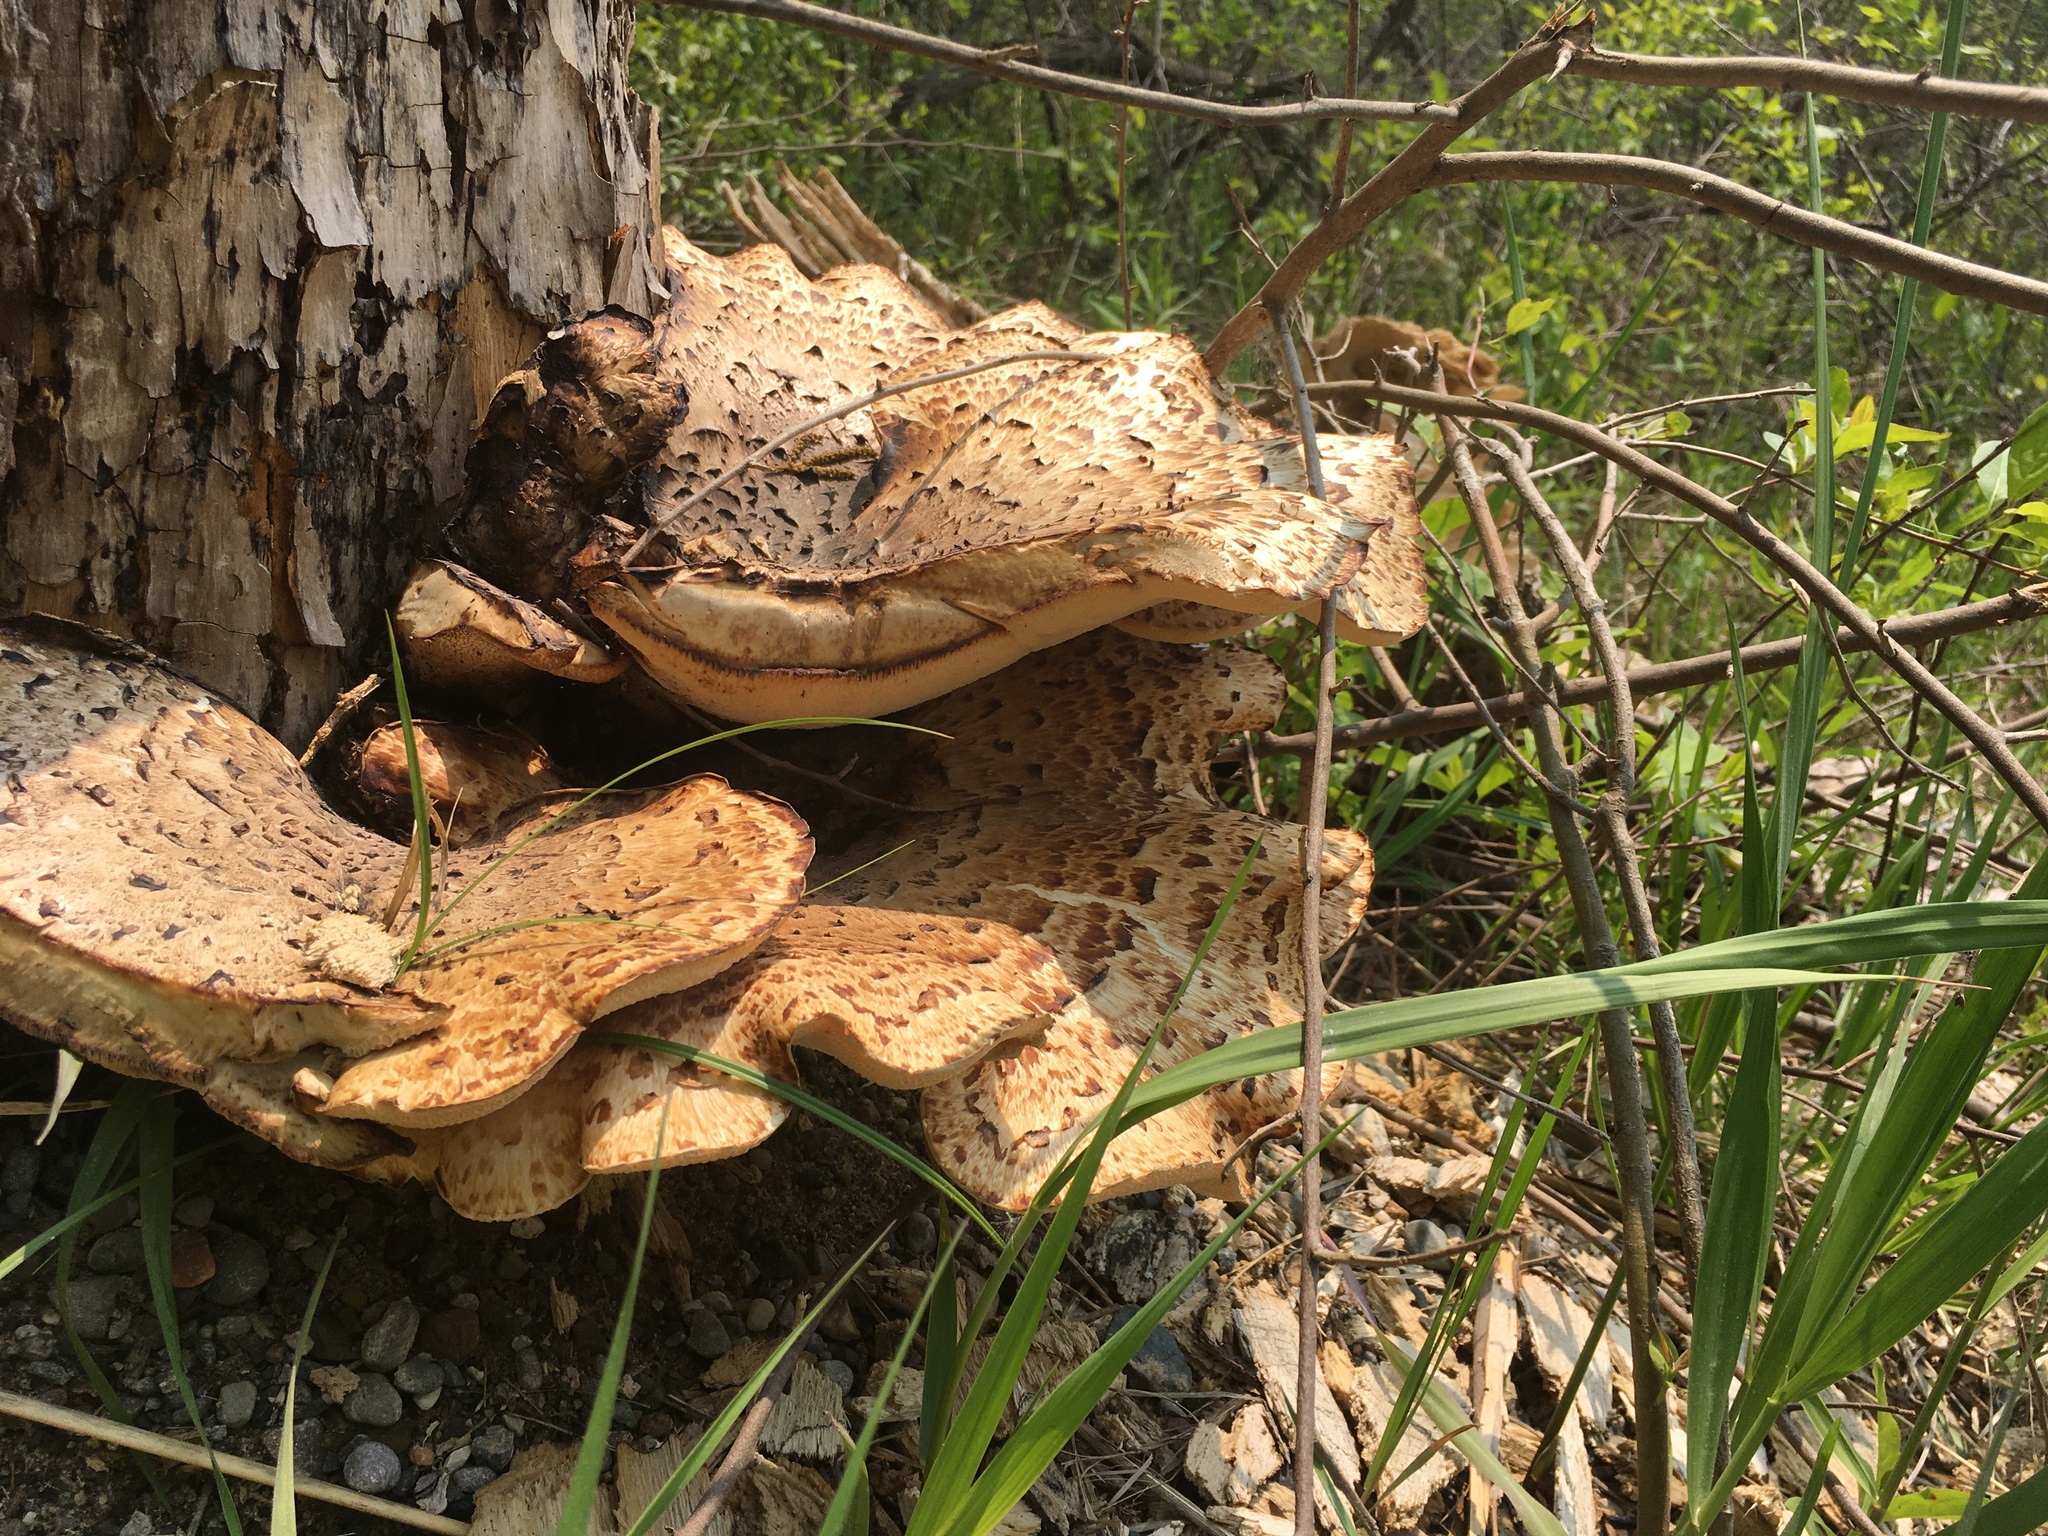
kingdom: Fungi
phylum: Basidiomycota
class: Agaricomycetes
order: Polyporales
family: Polyporaceae
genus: Cerioporus
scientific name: Cerioporus squamosus
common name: Dryad's saddle
